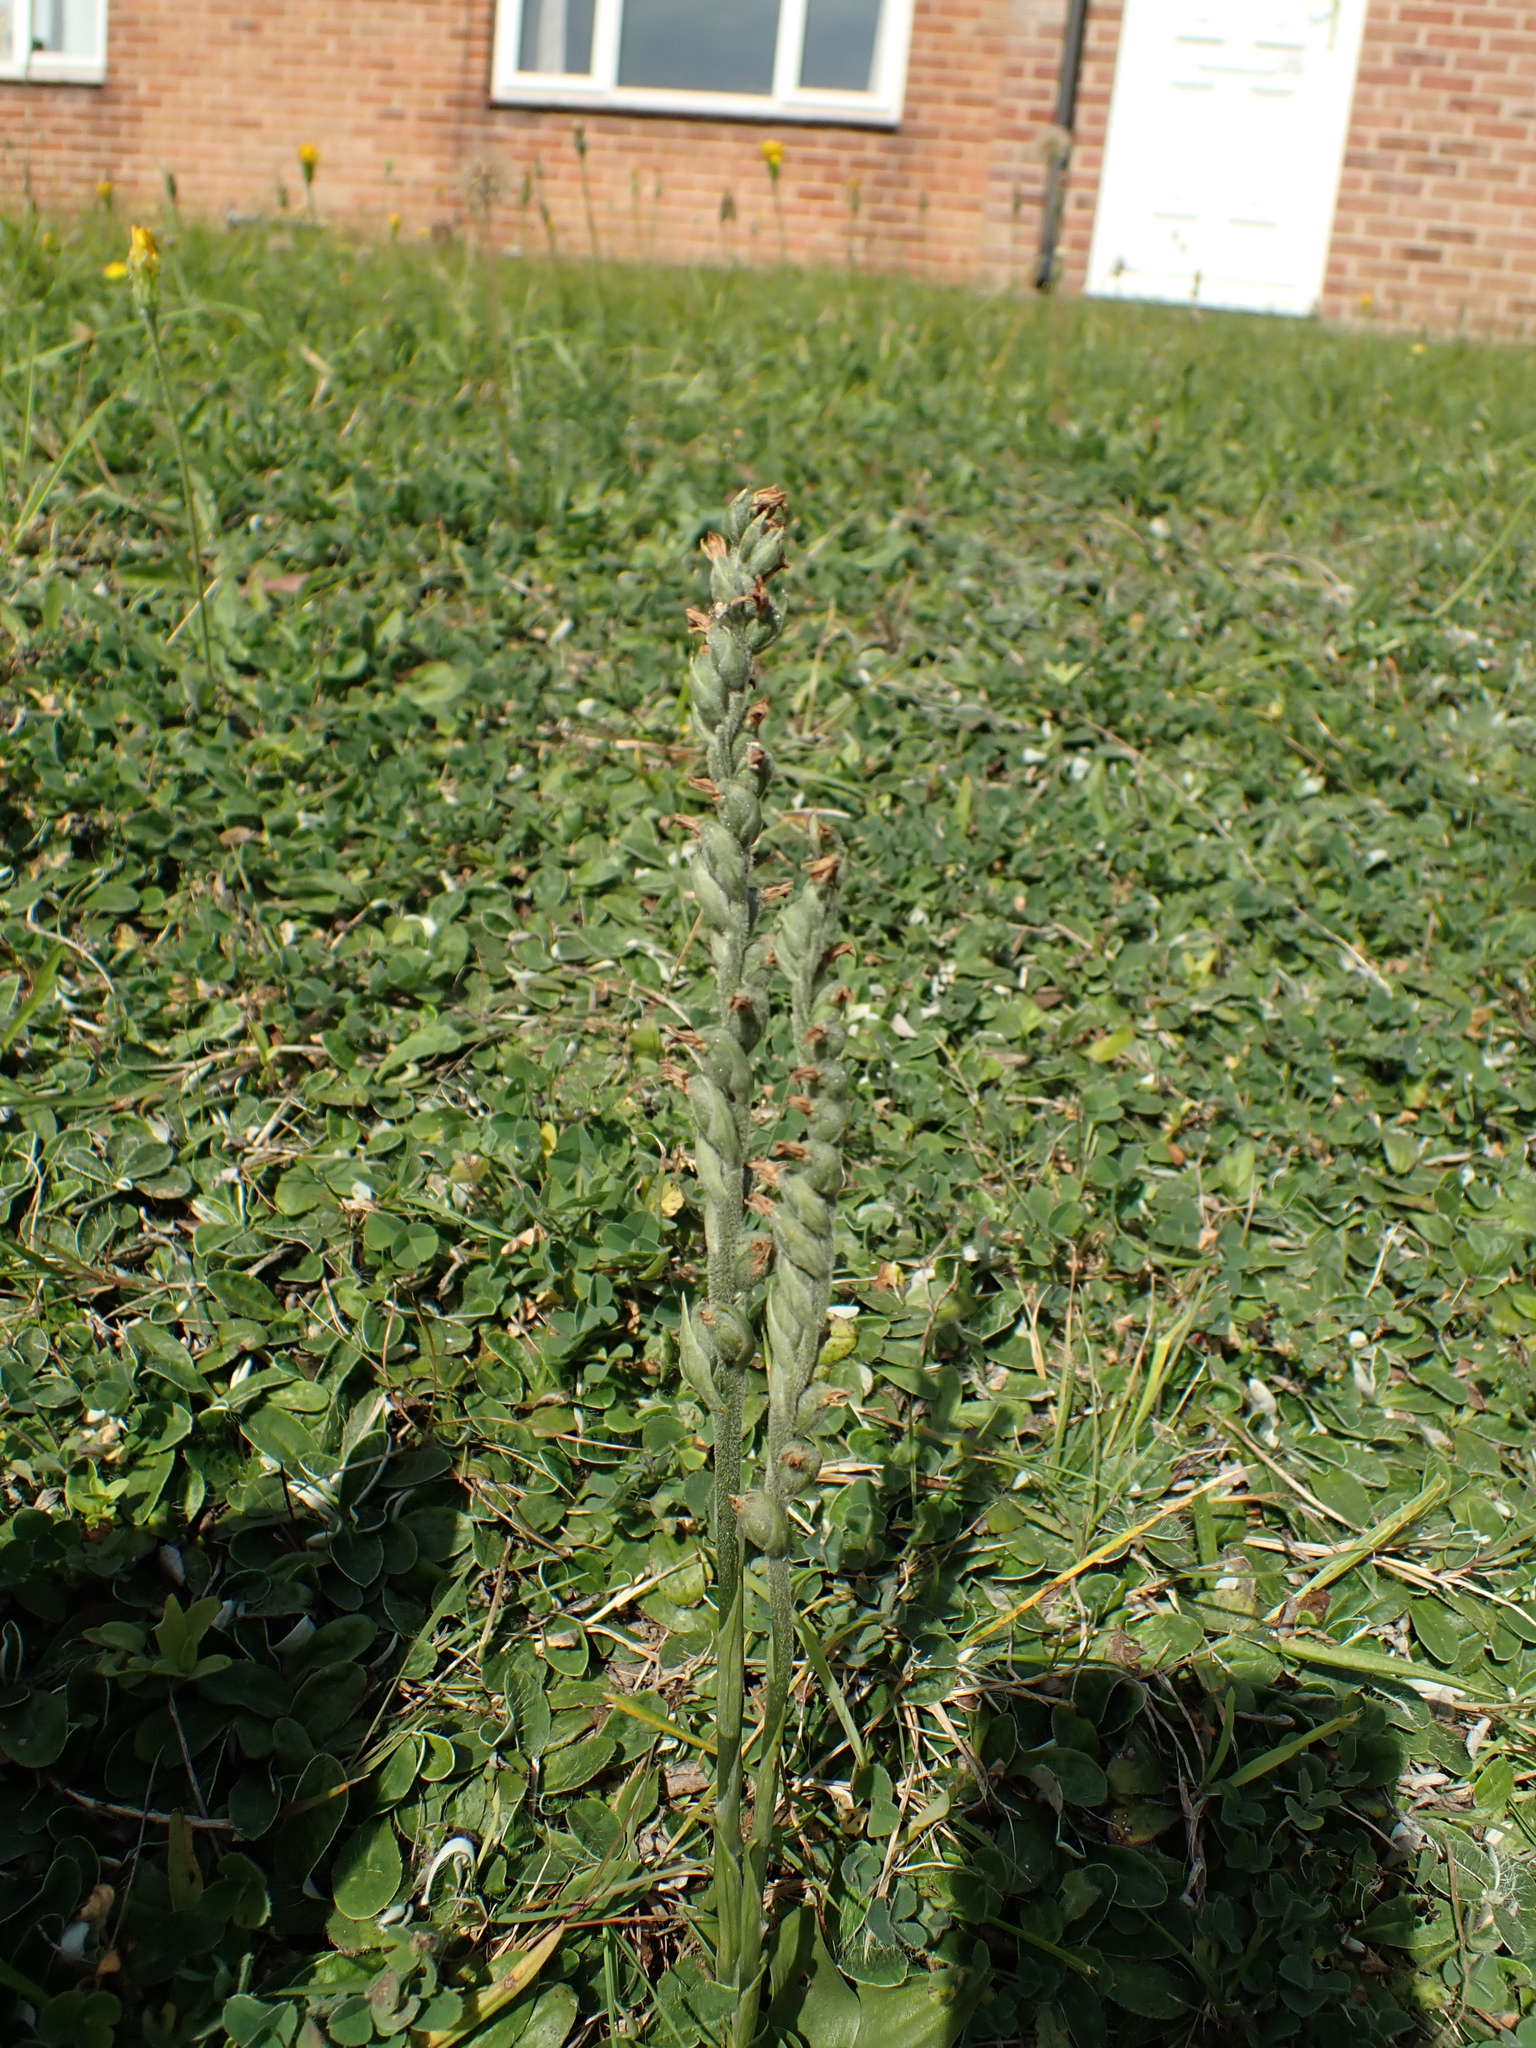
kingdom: Plantae
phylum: Tracheophyta
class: Liliopsida
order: Asparagales
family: Orchidaceae
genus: Spiranthes
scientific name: Spiranthes spiralis
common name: Autumn lady's-tresses
